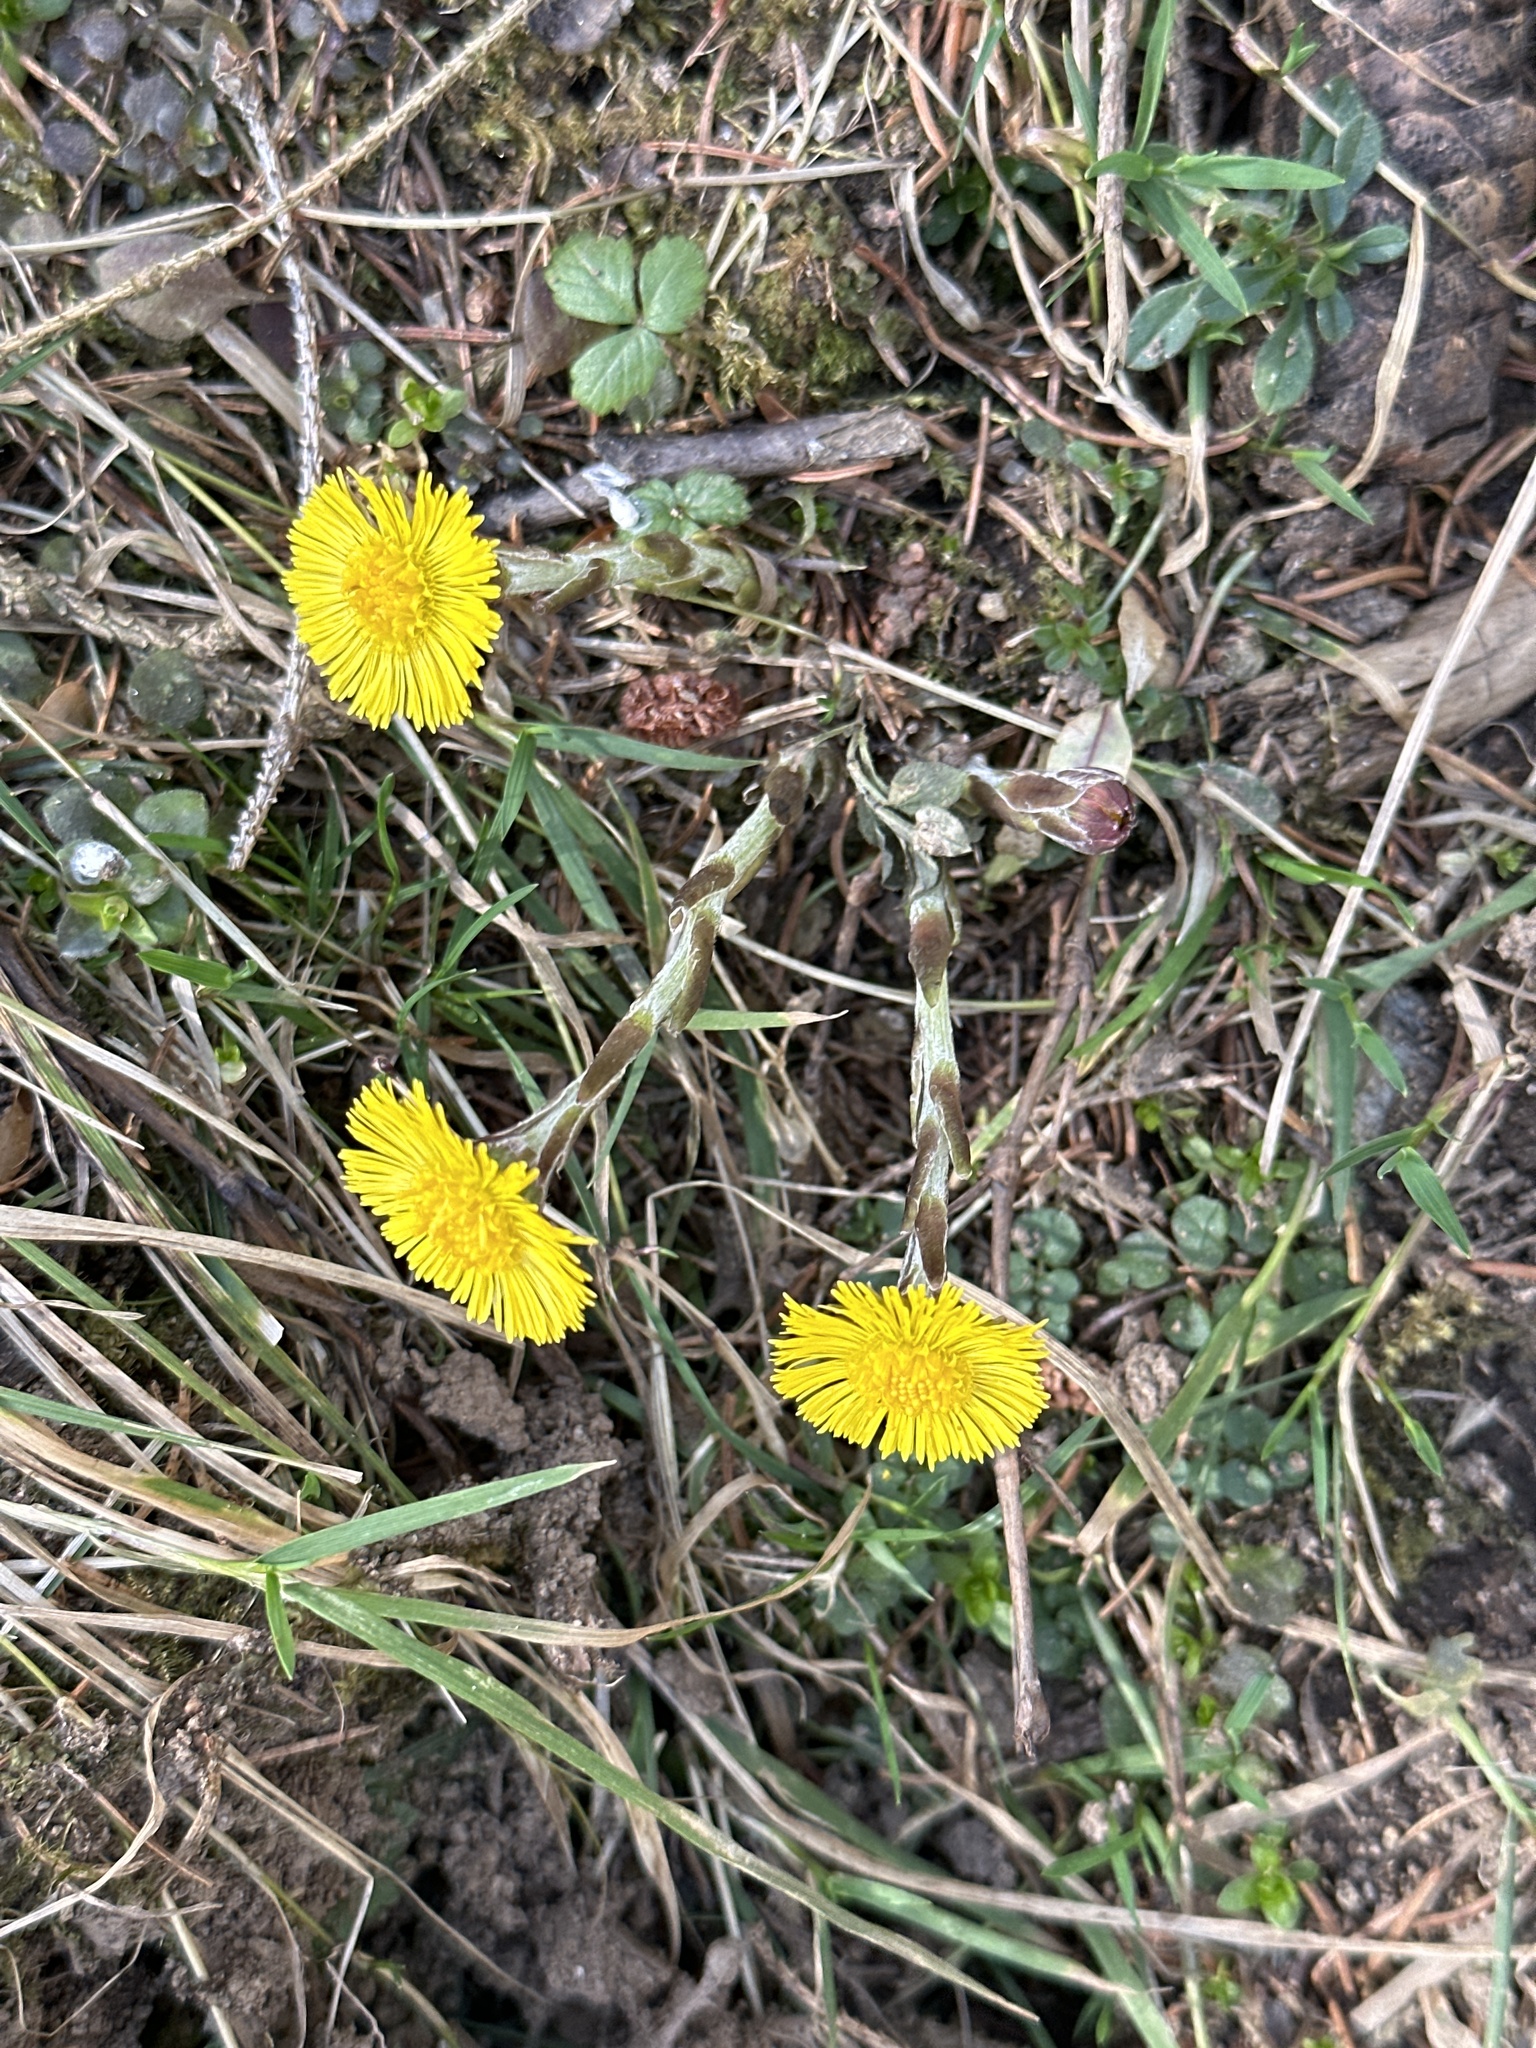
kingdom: Plantae
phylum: Tracheophyta
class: Magnoliopsida
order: Asterales
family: Asteraceae
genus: Tussilago
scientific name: Tussilago farfara
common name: Coltsfoot
